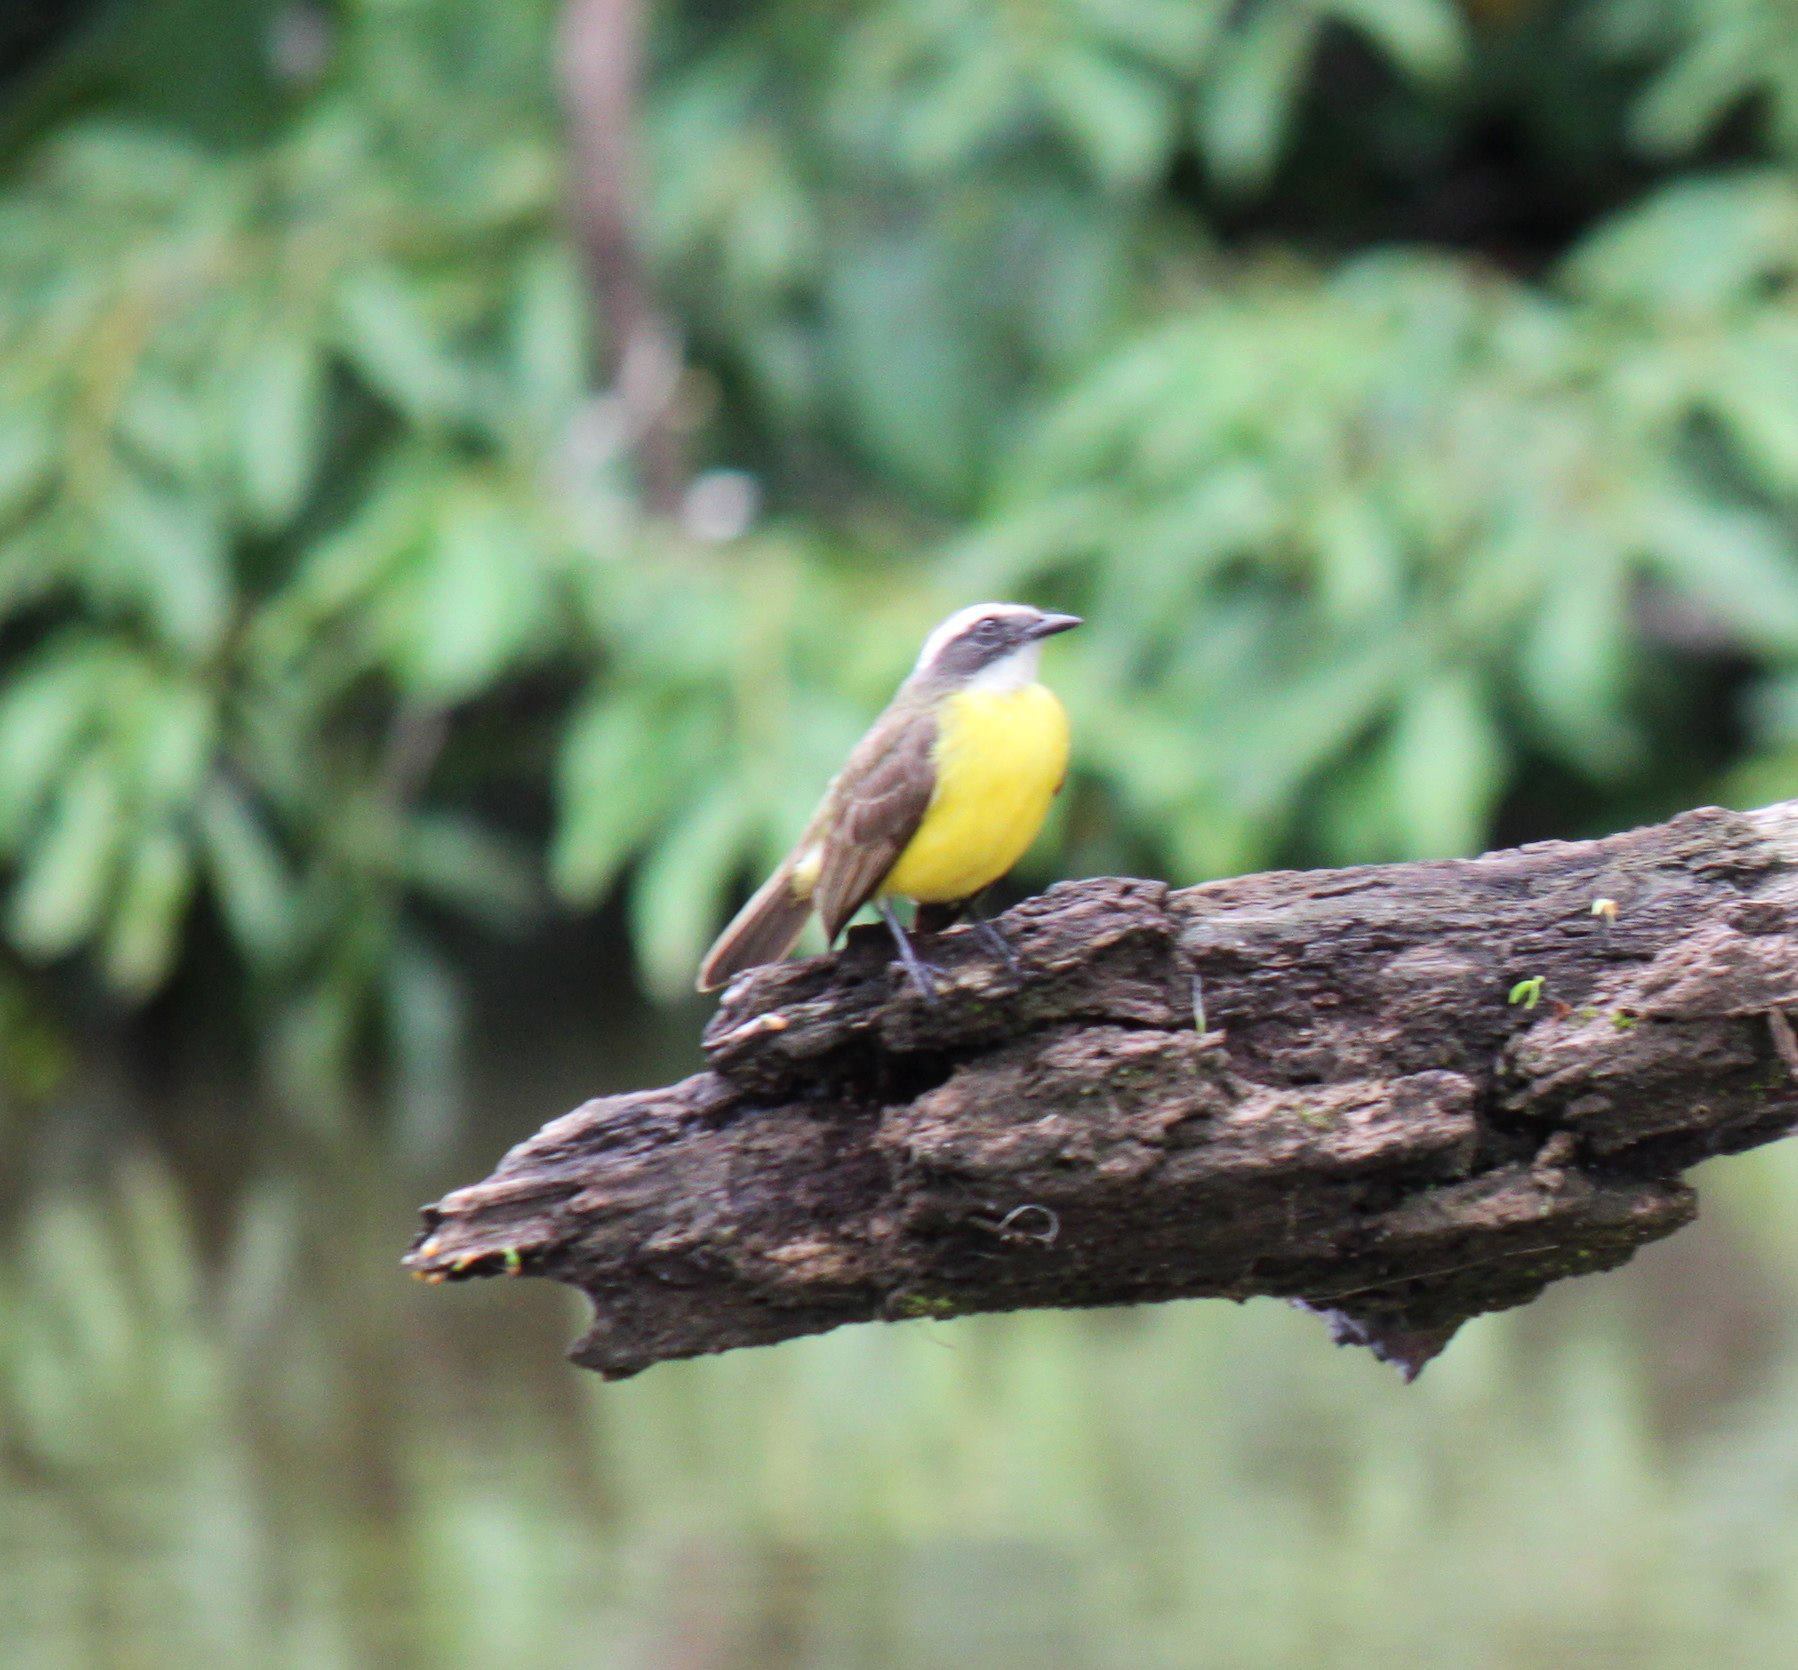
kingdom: Animalia
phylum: Chordata
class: Aves
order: Passeriformes
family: Tyrannidae
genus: Myiozetetes
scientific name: Myiozetetes similis
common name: Social flycatcher
